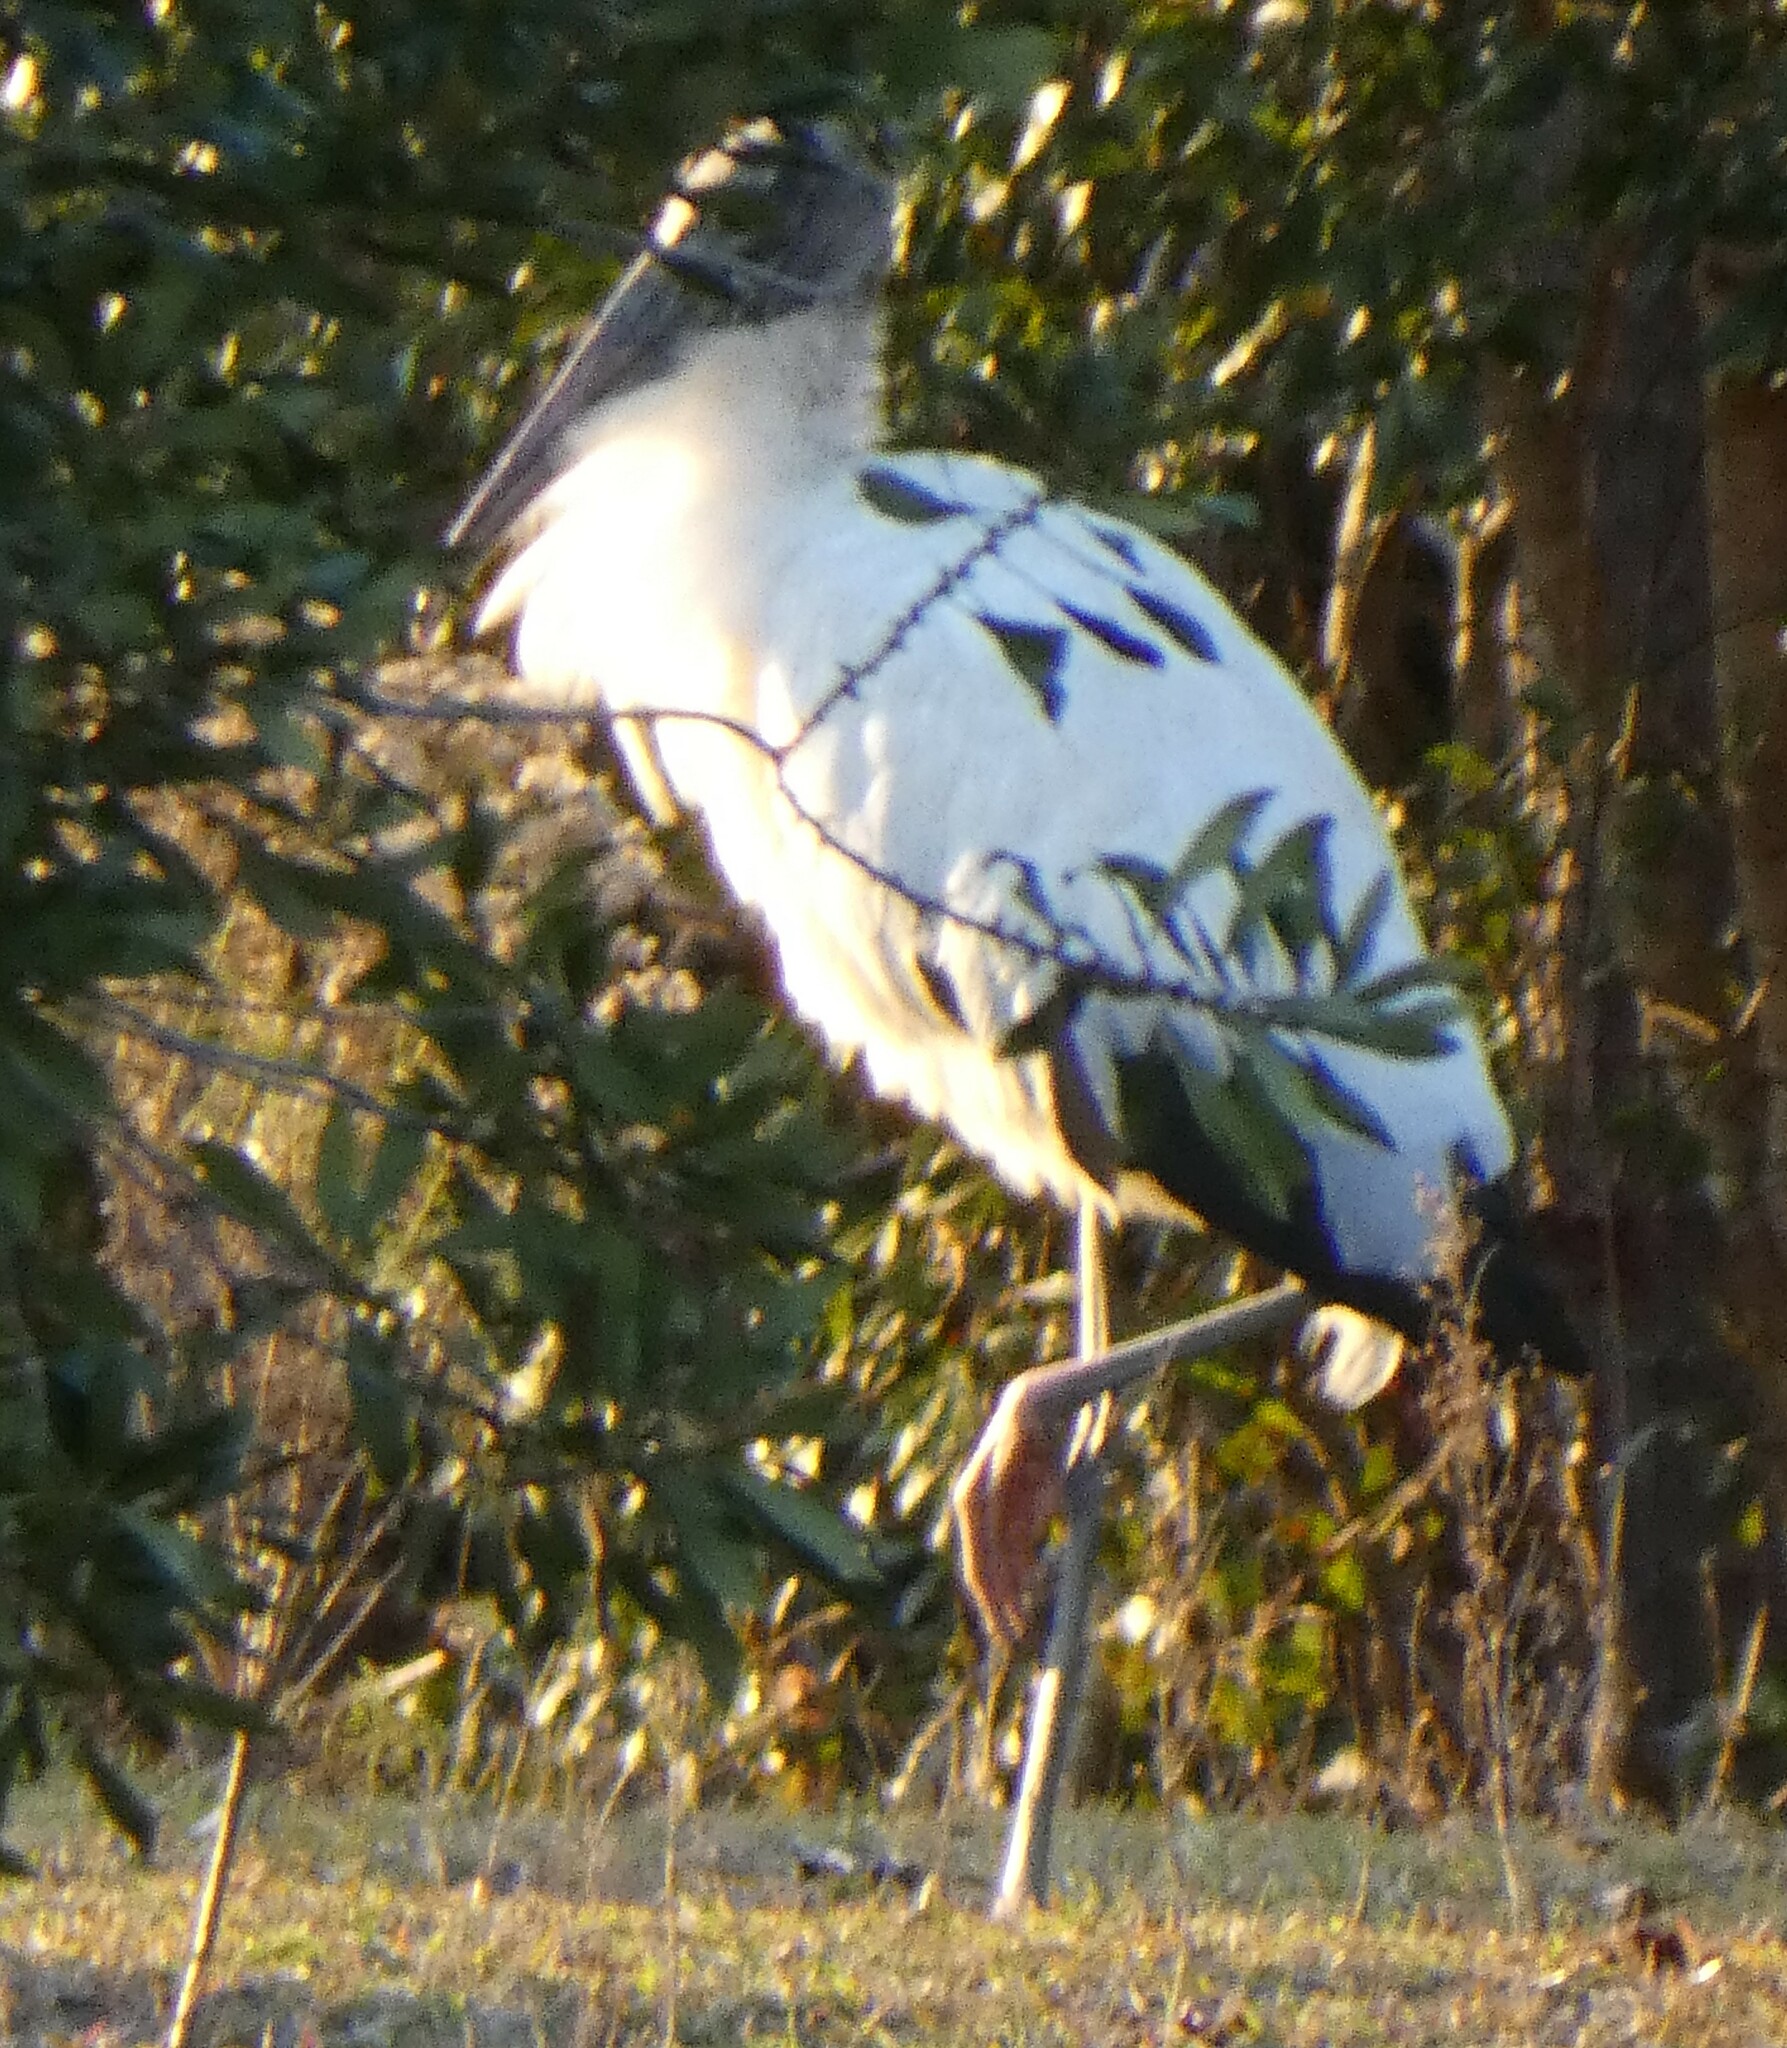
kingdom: Animalia
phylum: Chordata
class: Aves
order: Ciconiiformes
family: Ciconiidae
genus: Mycteria
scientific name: Mycteria americana
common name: Wood stork
